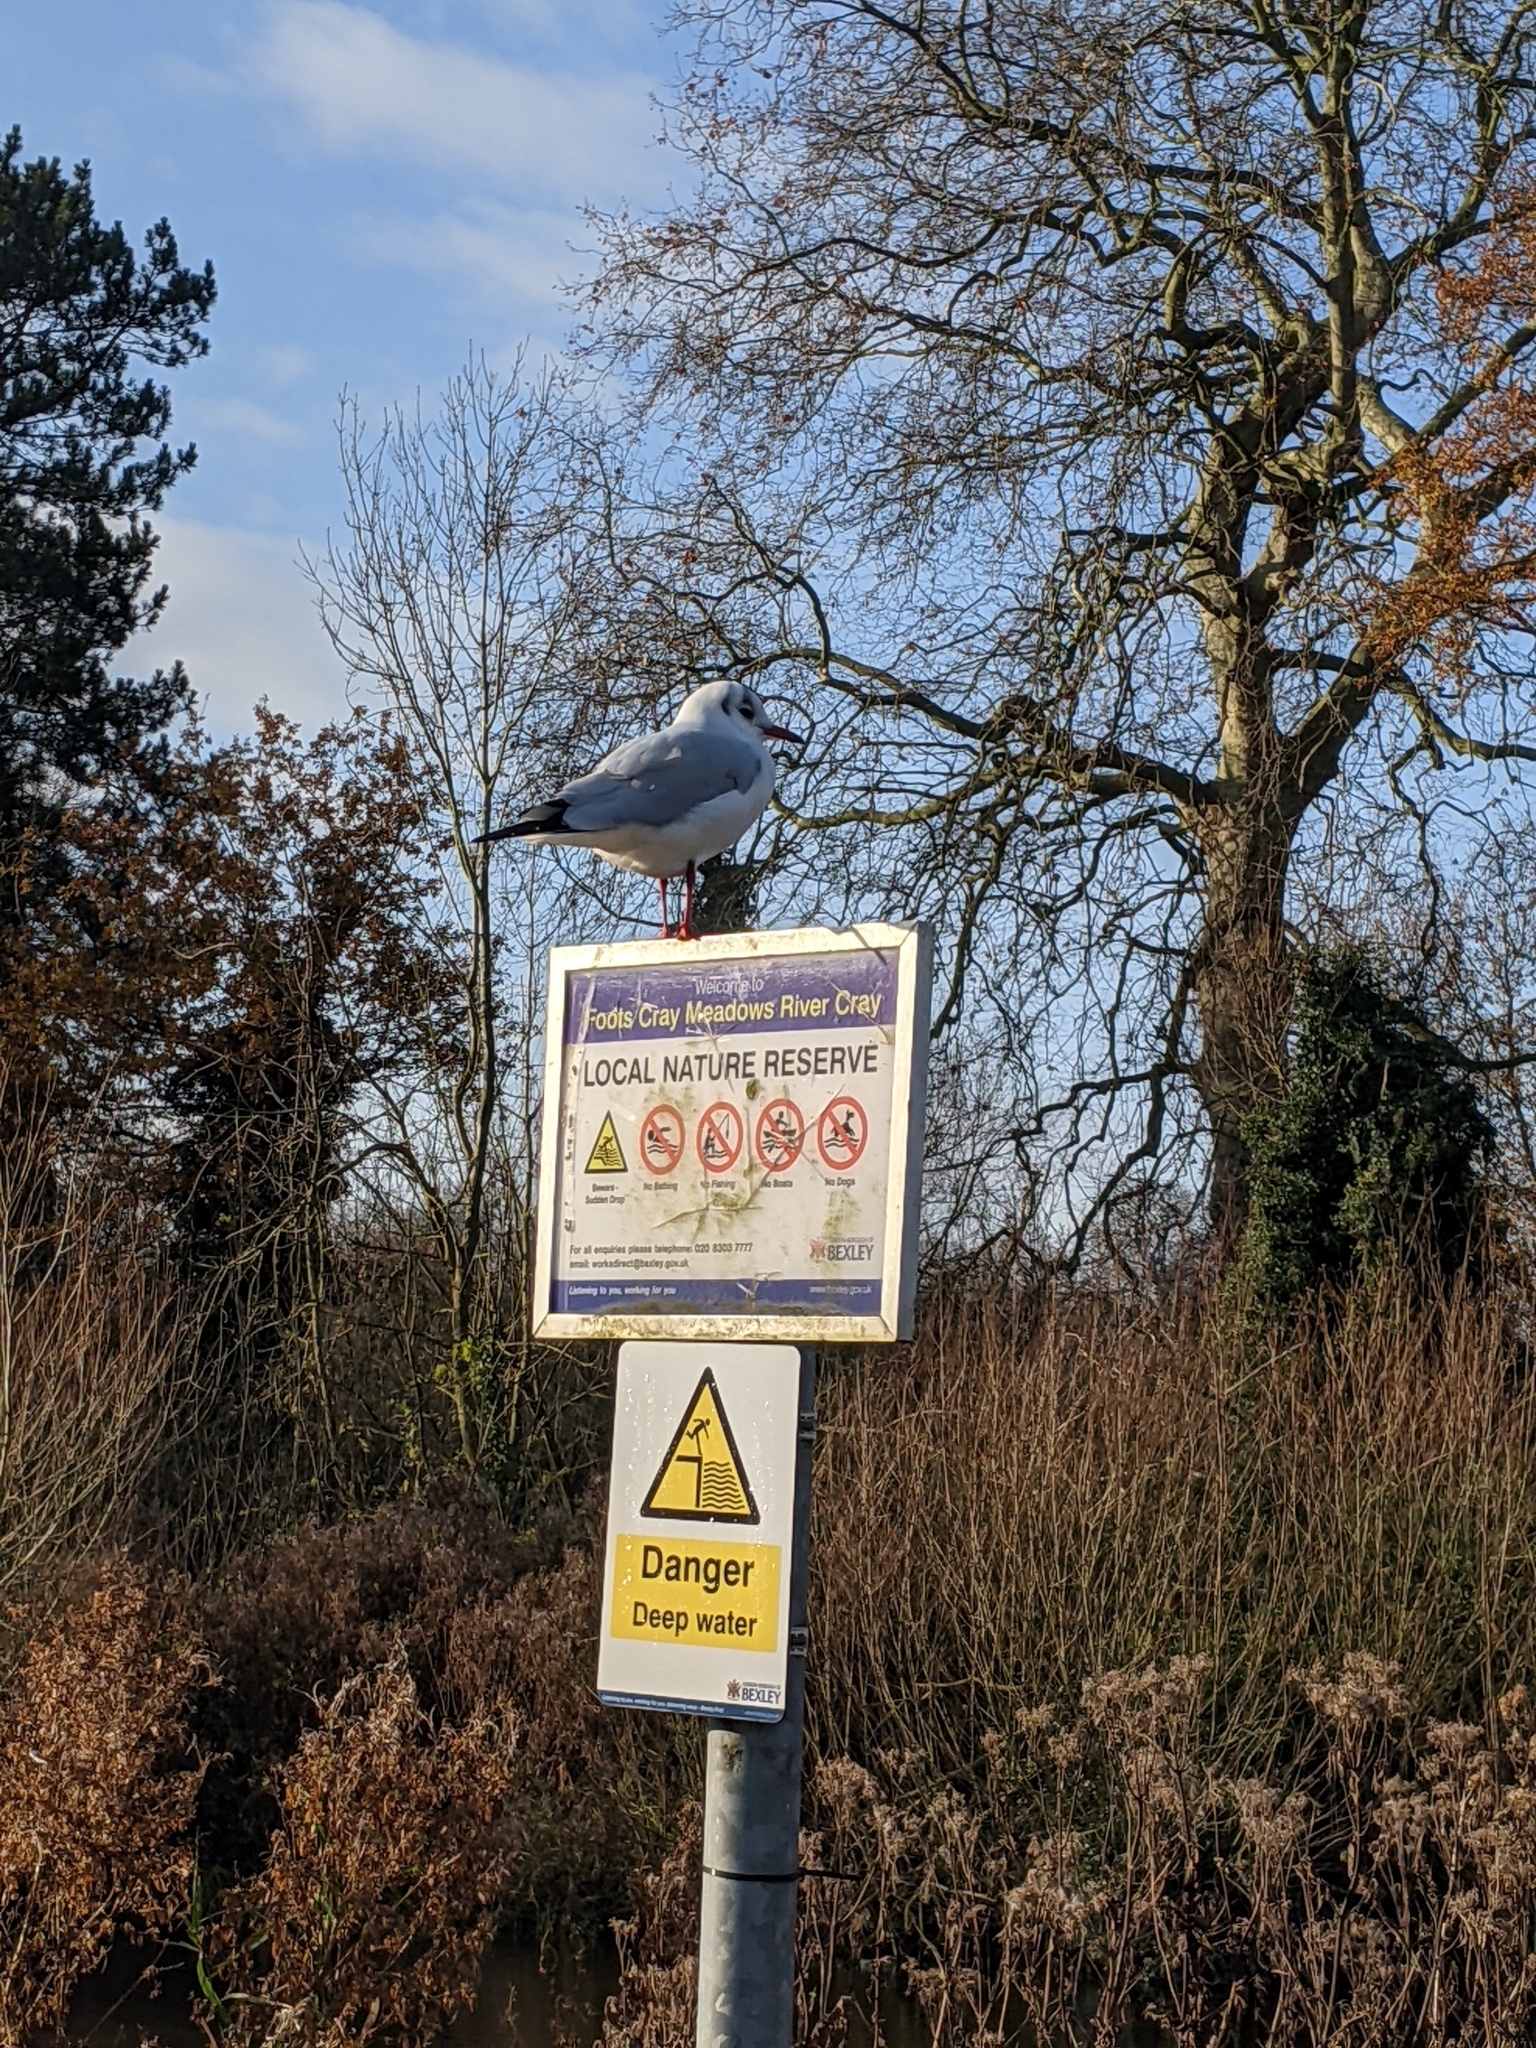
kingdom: Animalia
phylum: Chordata
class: Aves
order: Charadriiformes
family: Laridae
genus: Chroicocephalus
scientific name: Chroicocephalus ridibundus
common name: Black-headed gull
